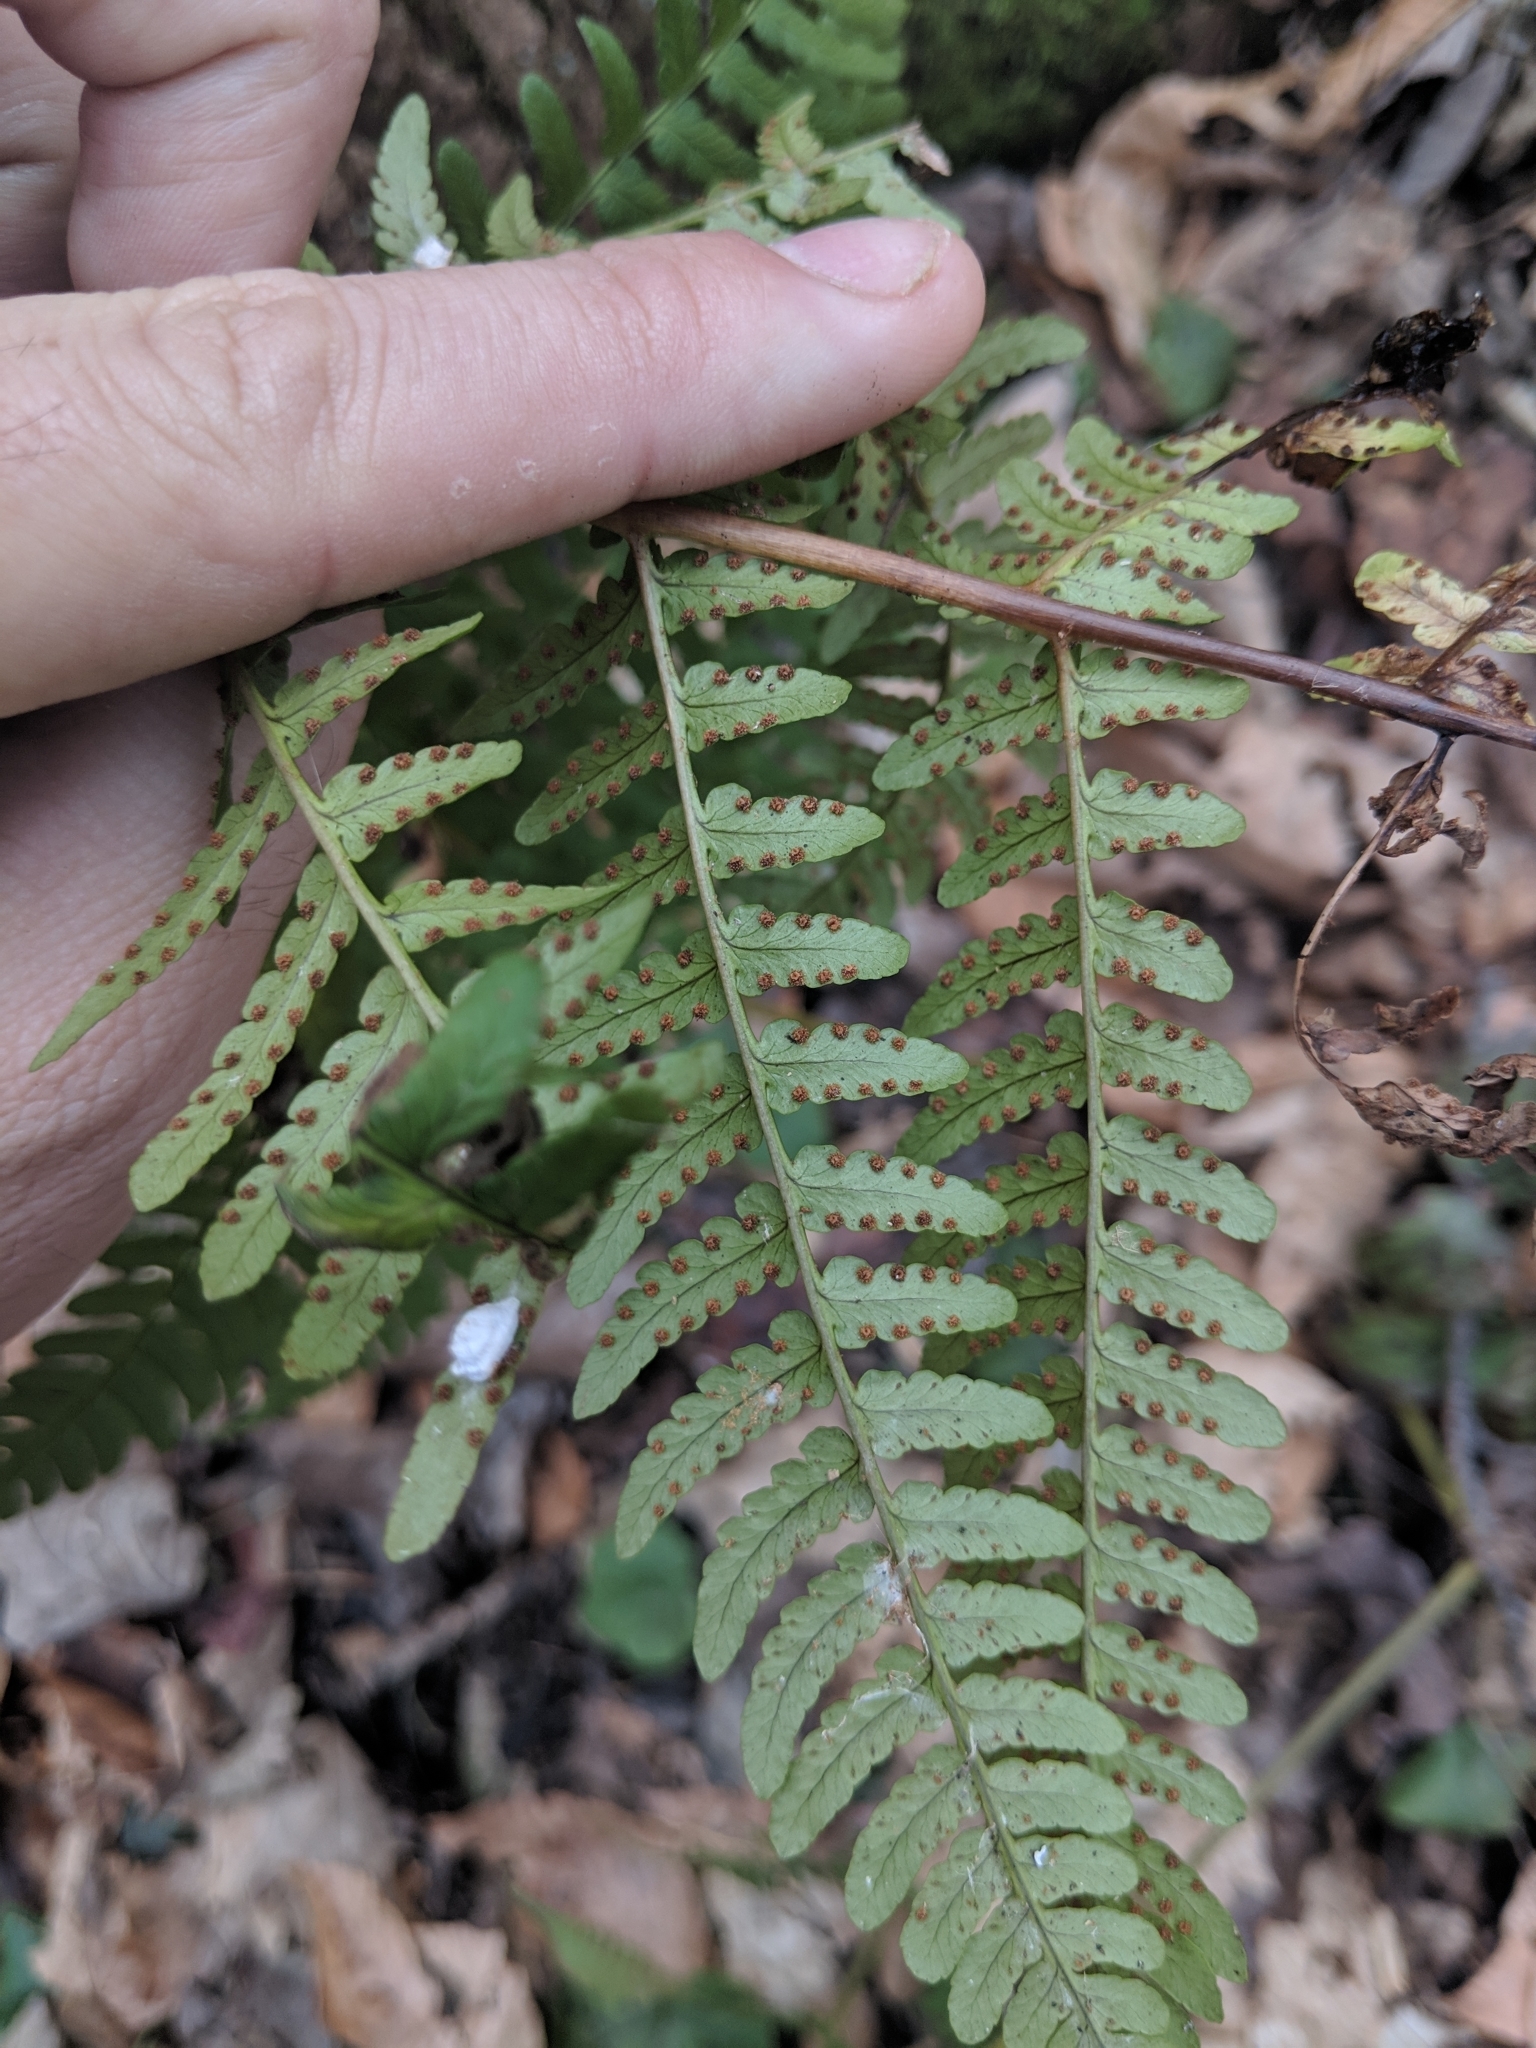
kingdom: Plantae
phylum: Tracheophyta
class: Polypodiopsida
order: Polypodiales
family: Dryopteridaceae
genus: Dryopteris
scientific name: Dryopteris marginalis
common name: Marginal wood fern
